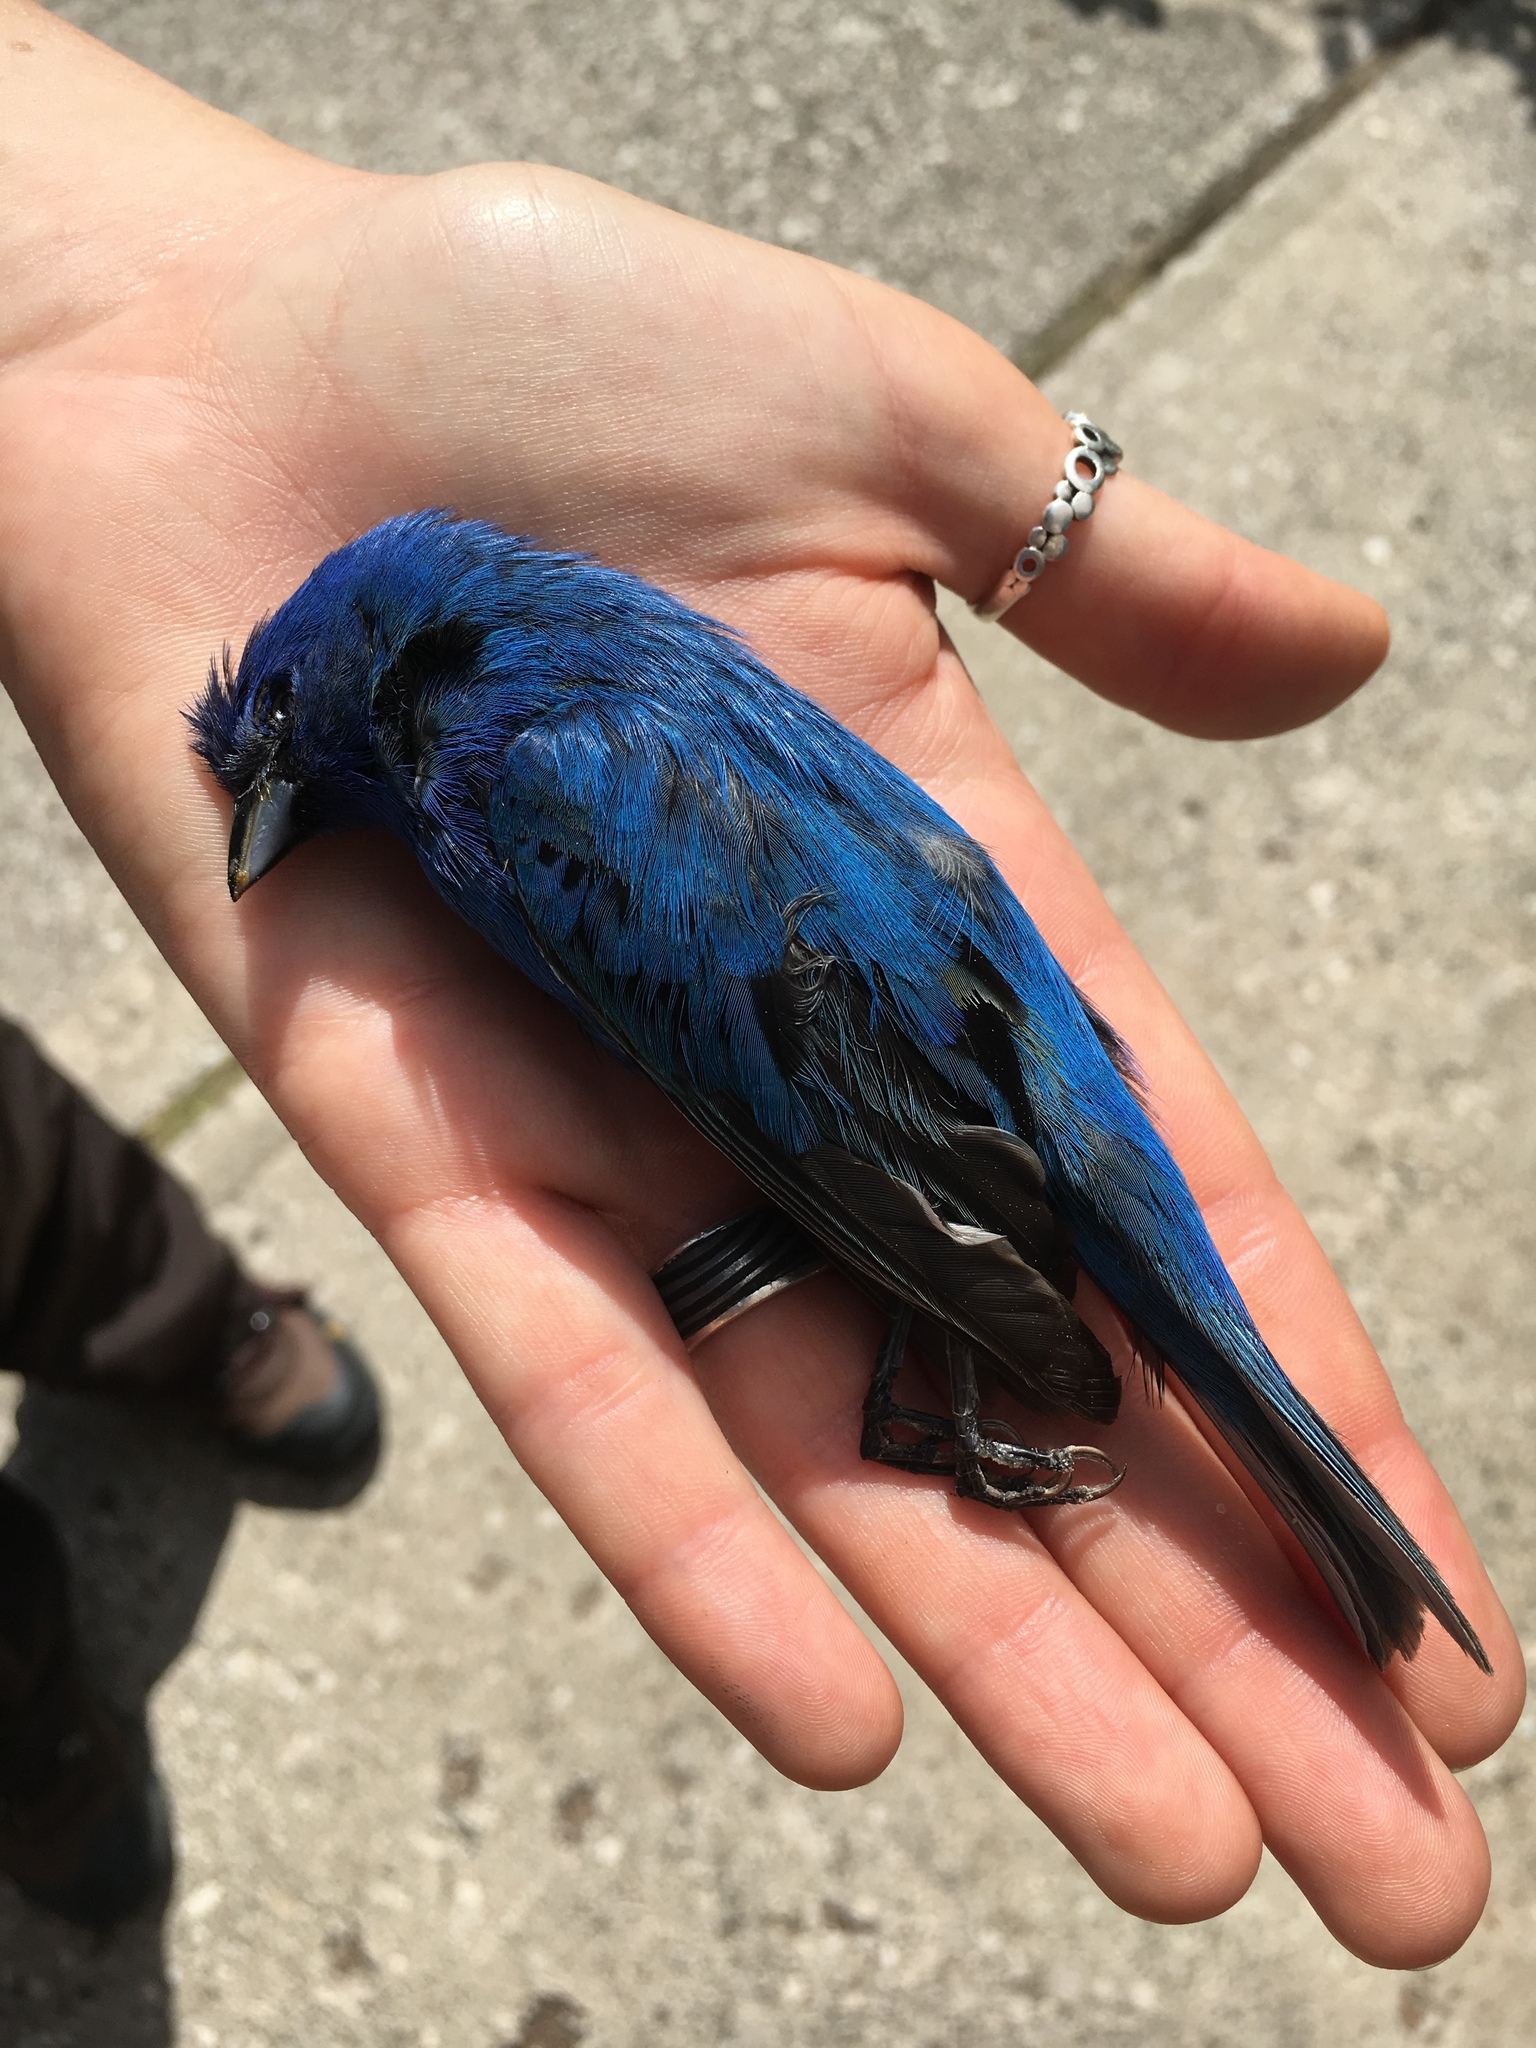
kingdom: Animalia
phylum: Chordata
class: Aves
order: Passeriformes
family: Cardinalidae
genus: Passerina
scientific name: Passerina cyanea
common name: Indigo bunting
